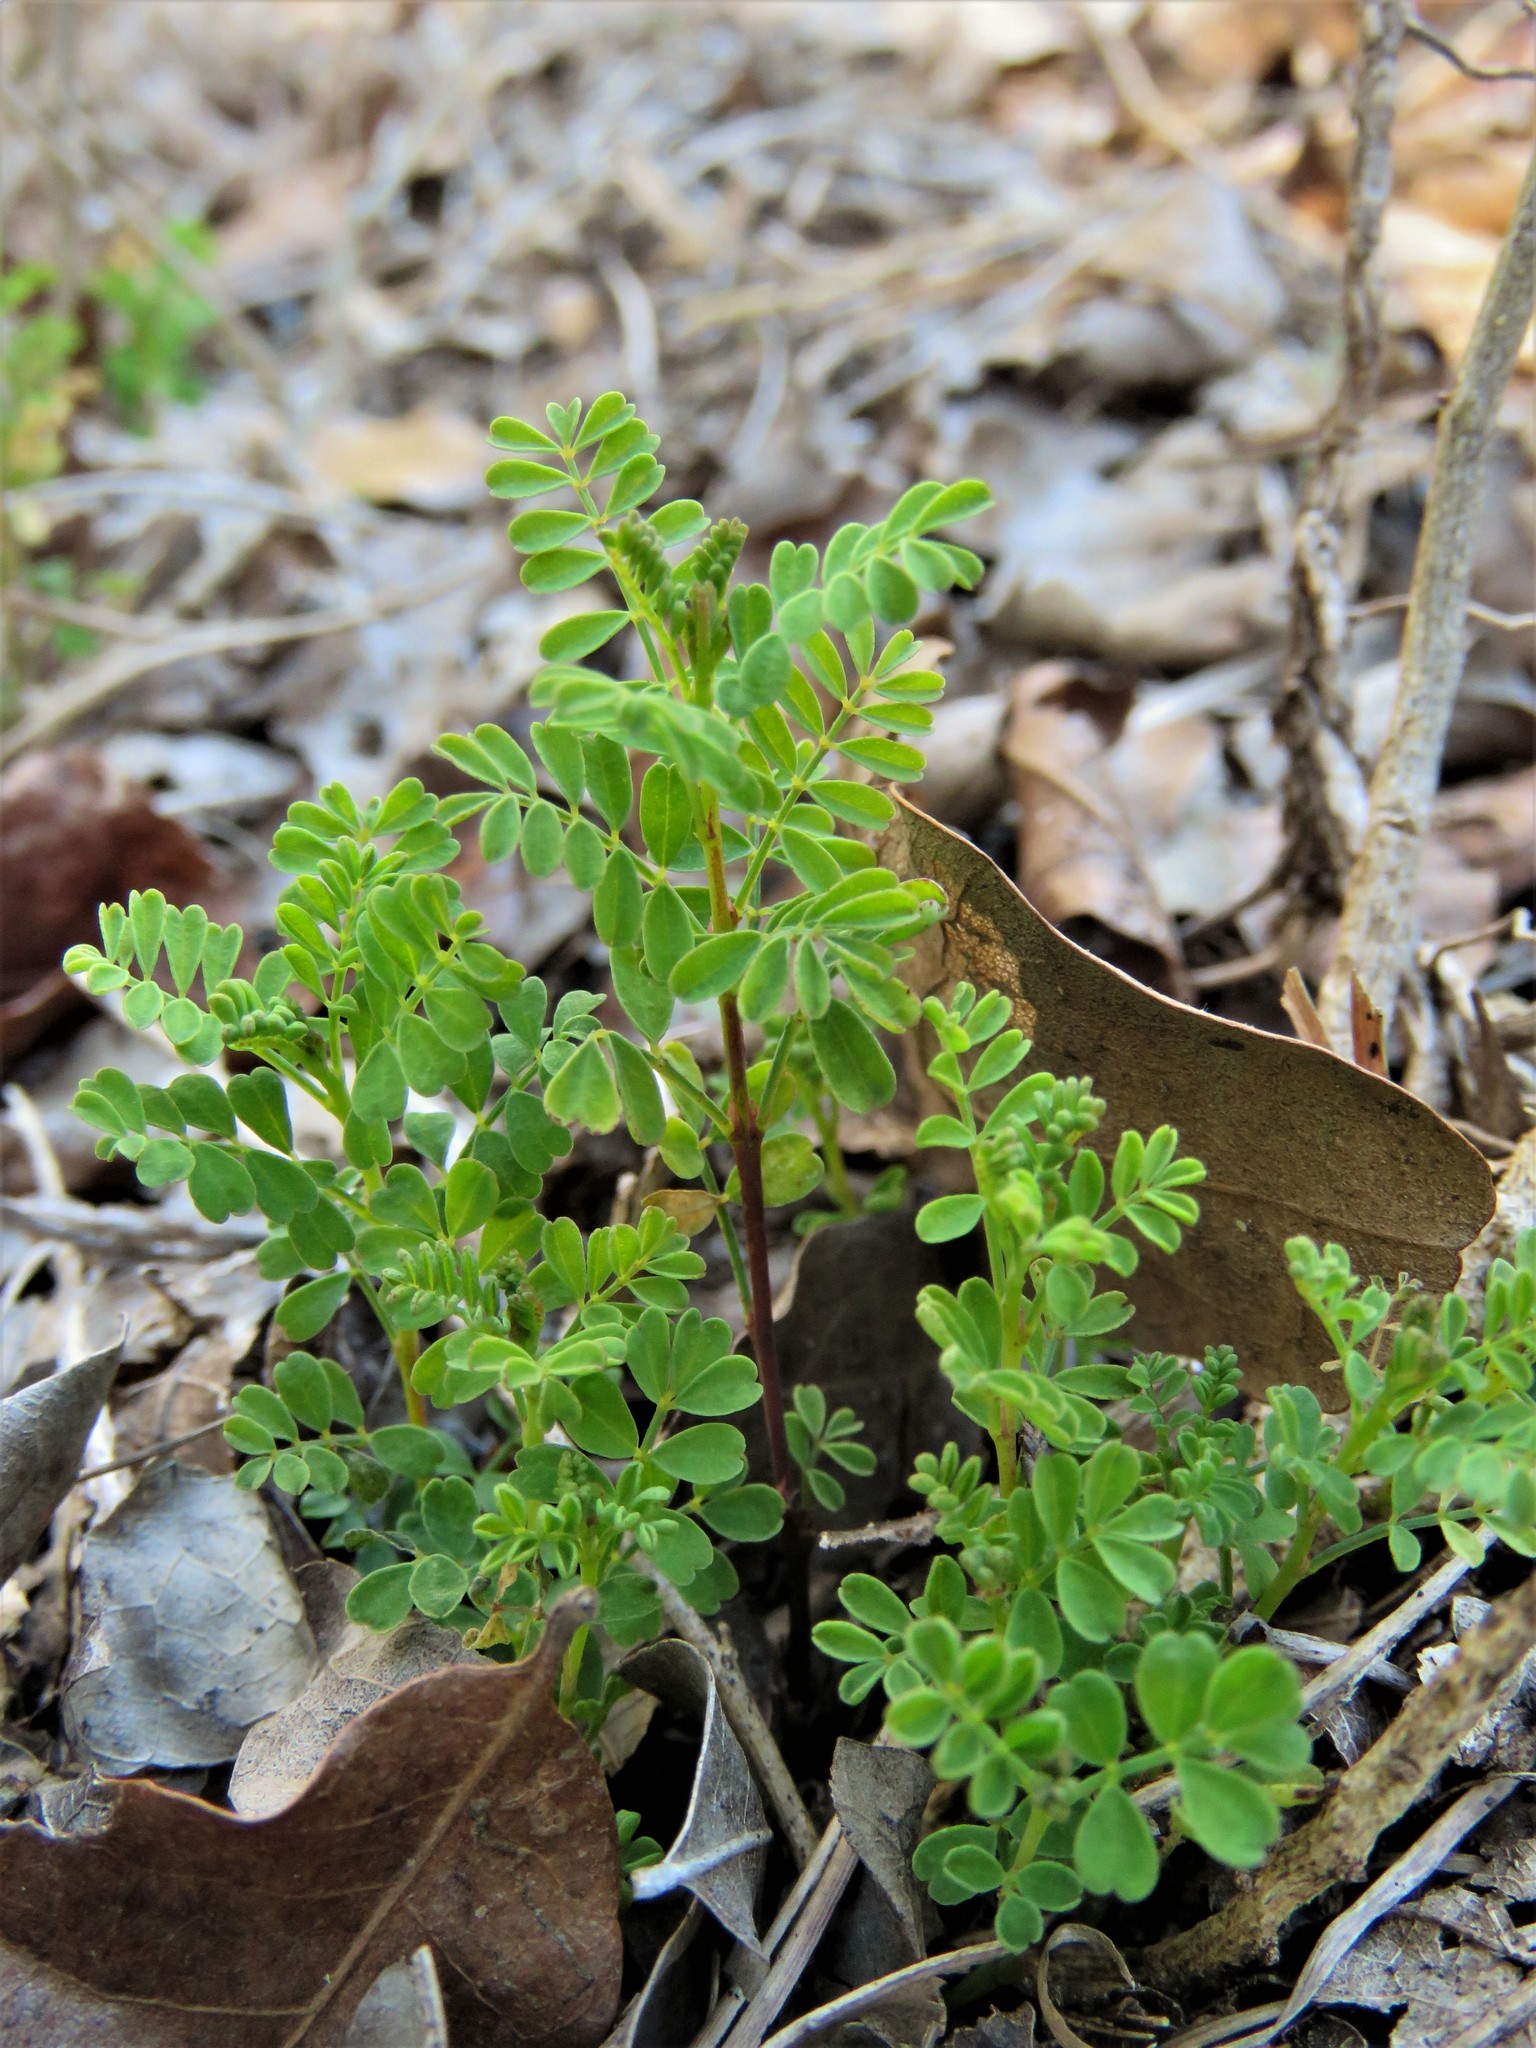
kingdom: Plantae
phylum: Tracheophyta
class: Magnoliopsida
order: Fabales
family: Fabaceae
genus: Dalea
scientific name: Dalea frutescens
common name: Black dalea
